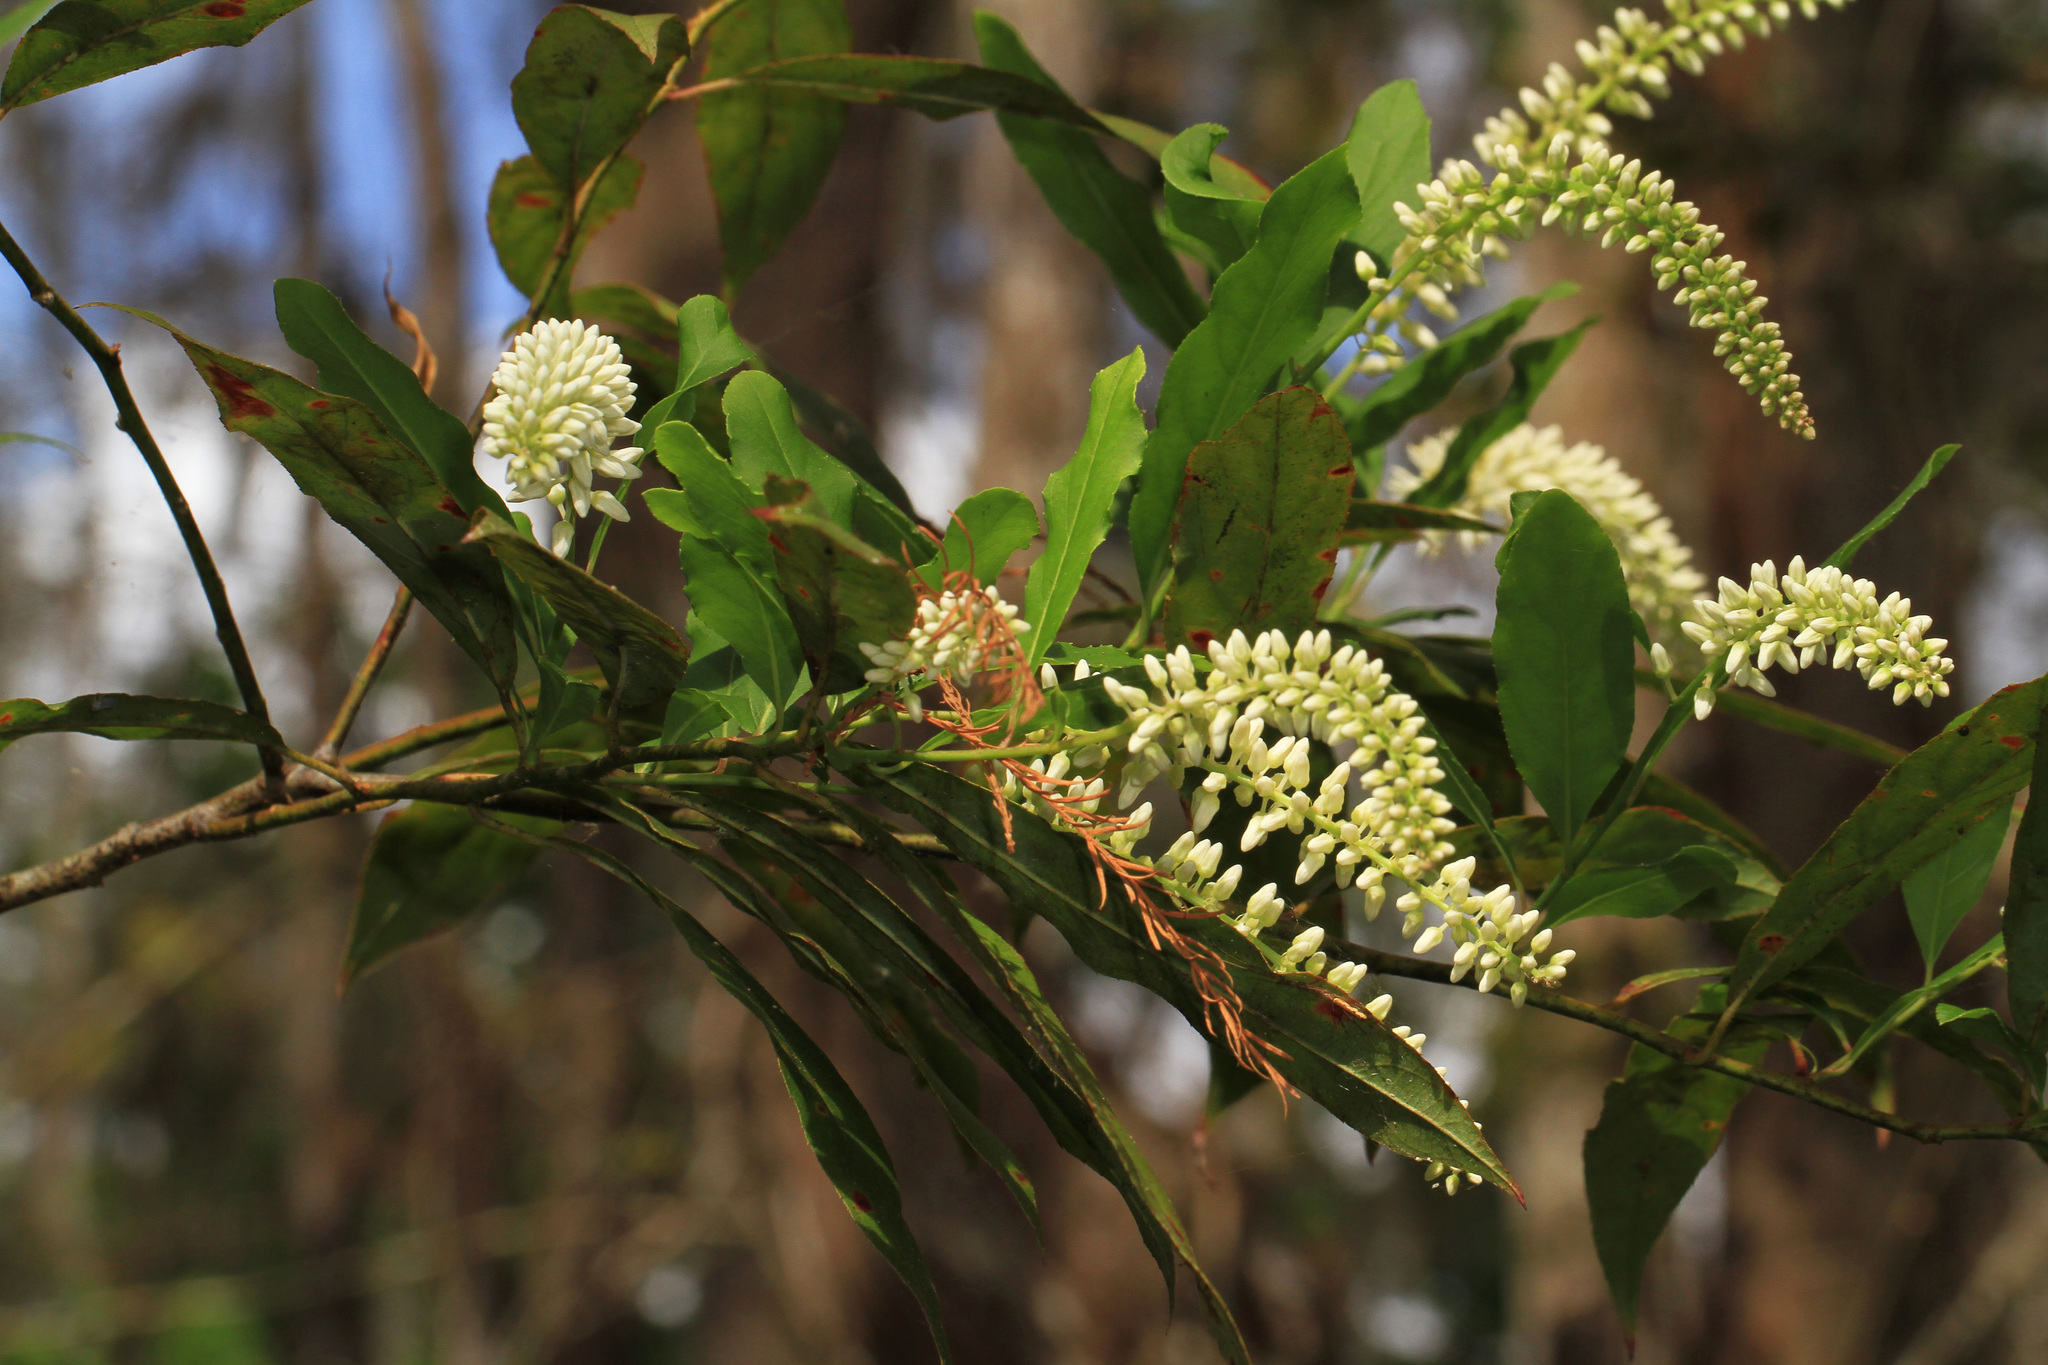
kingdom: Plantae
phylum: Tracheophyta
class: Magnoliopsida
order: Saxifragales
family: Iteaceae
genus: Itea
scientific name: Itea virginica
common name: Sweetspire
